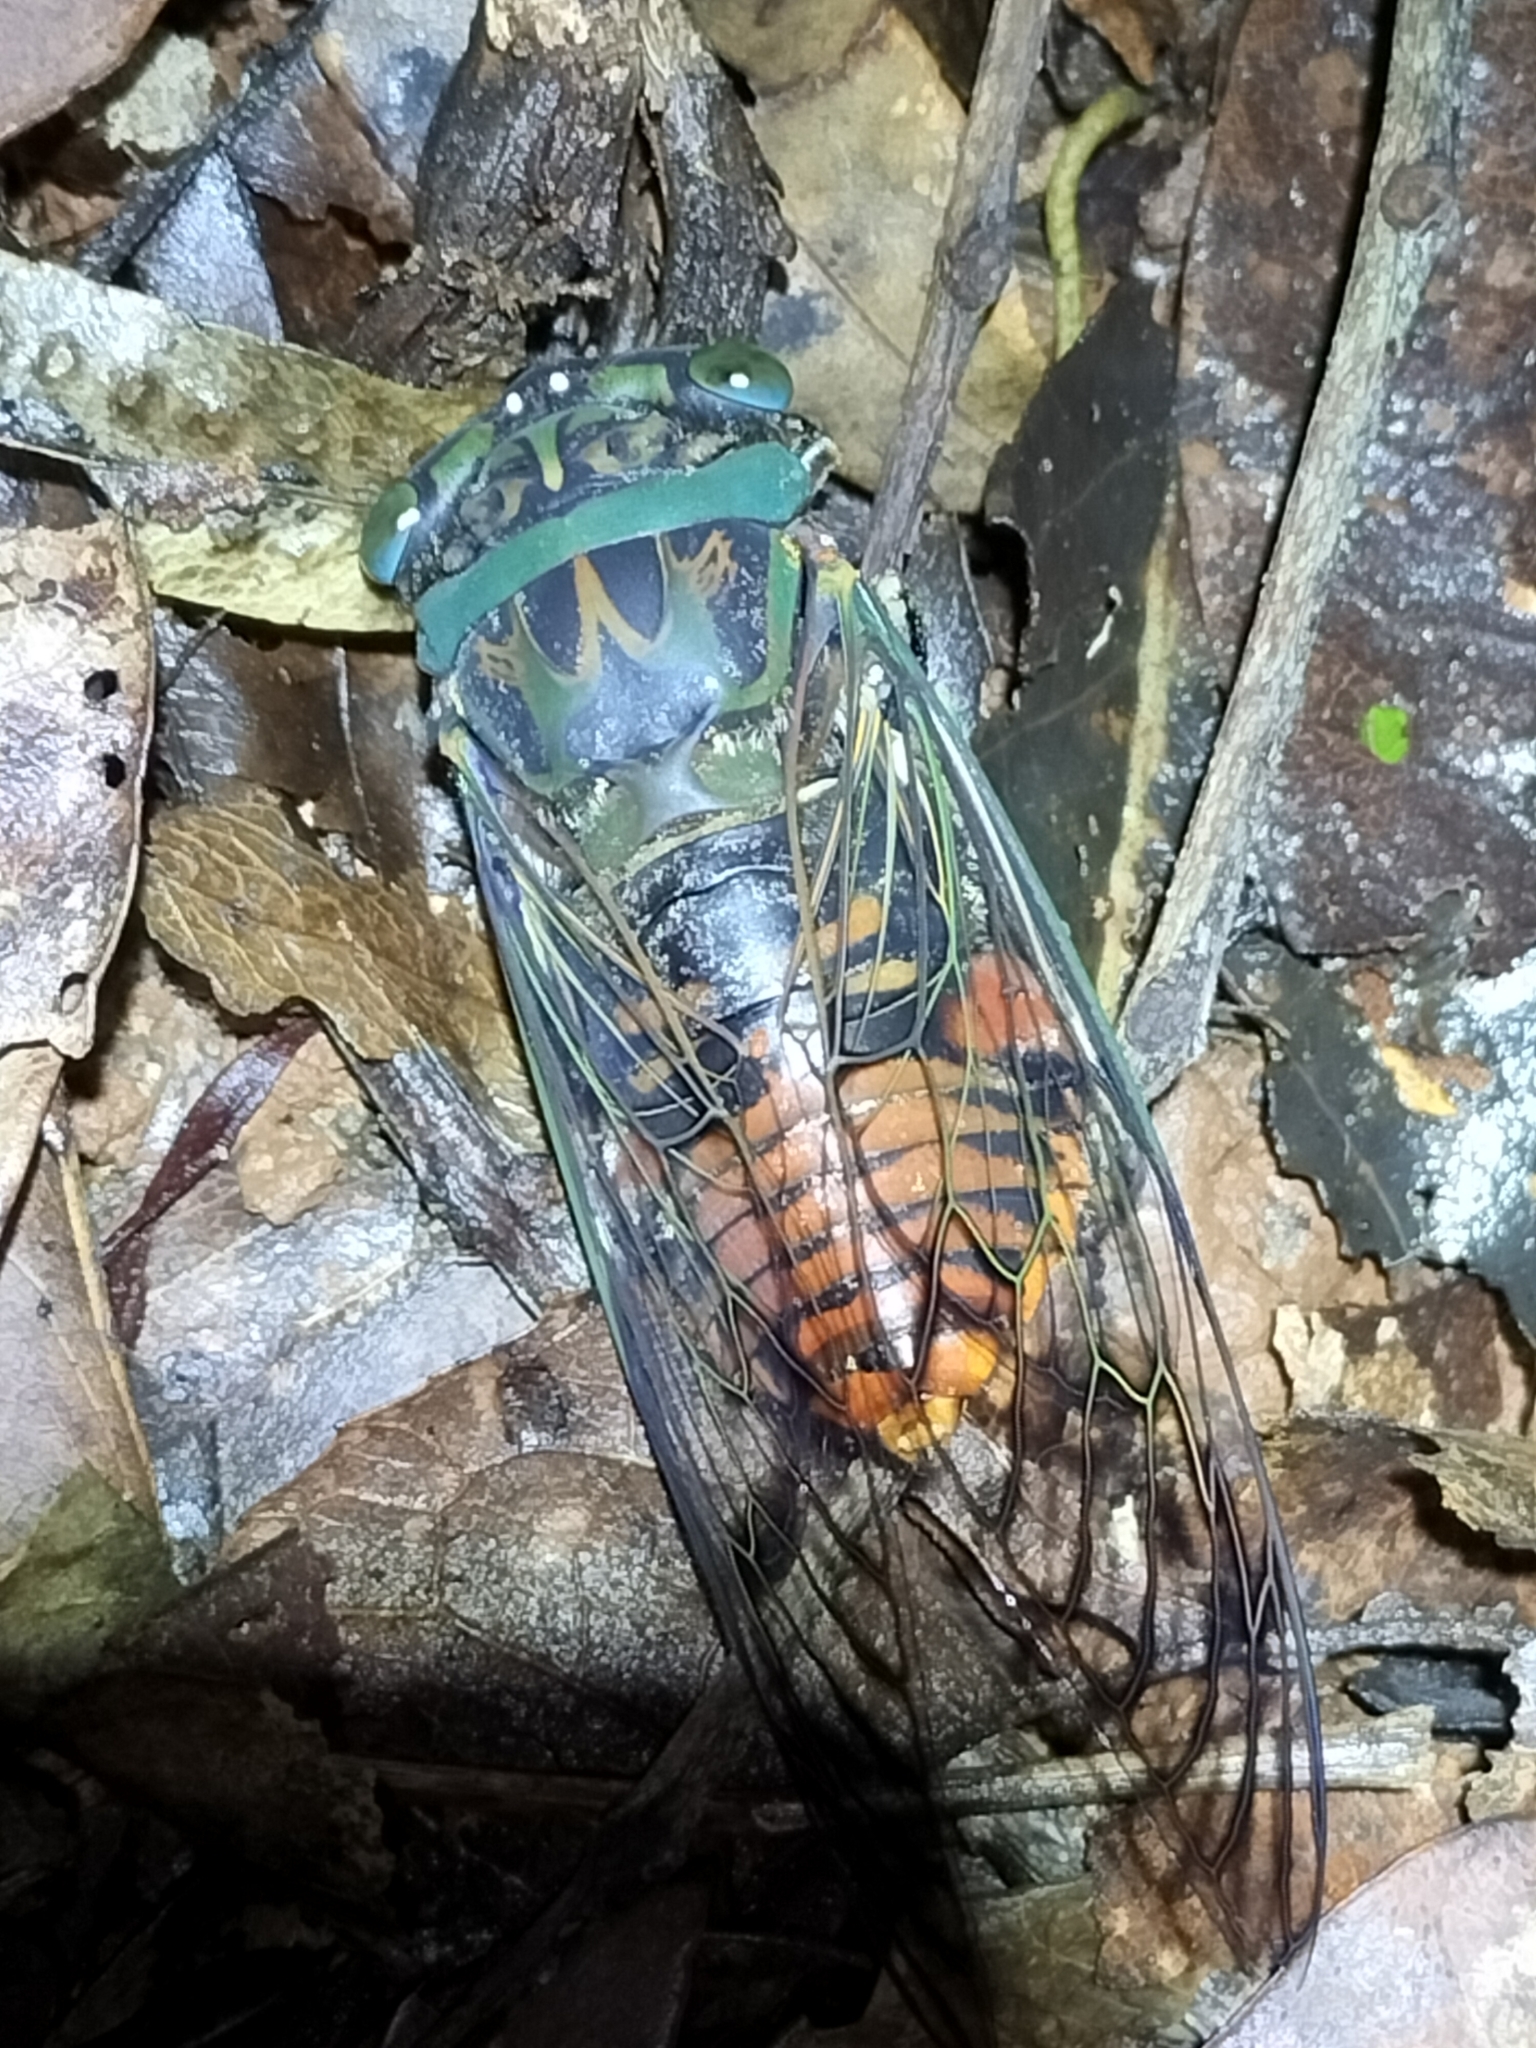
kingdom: Animalia
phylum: Arthropoda
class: Insecta
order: Hemiptera
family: Cicadidae
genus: Psaltoda
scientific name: Psaltoda magnifica
